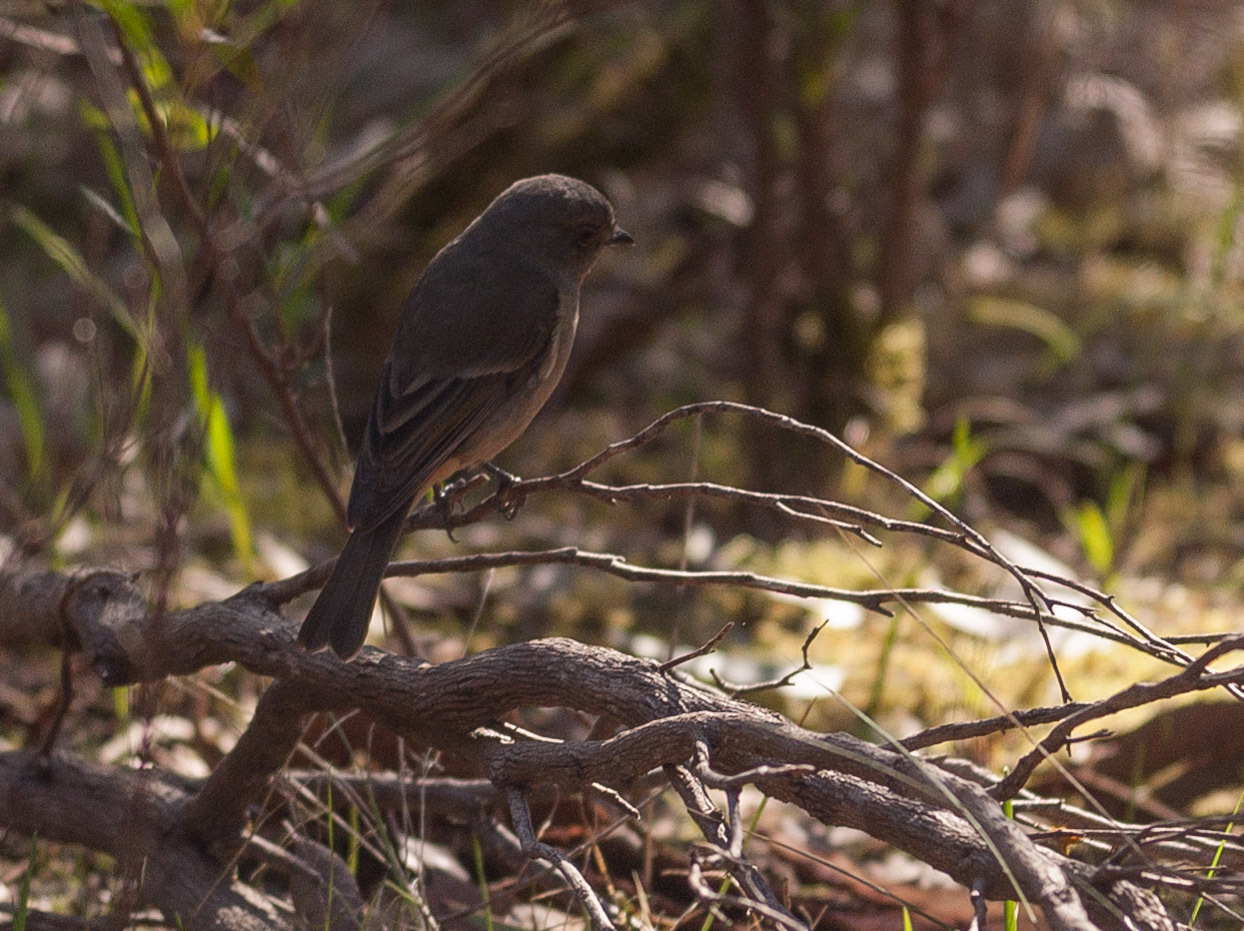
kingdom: Animalia
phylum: Chordata
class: Aves
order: Passeriformes
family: Pachycephalidae
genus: Pachycephala
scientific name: Pachycephala fuliginosa
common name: Western whistler
